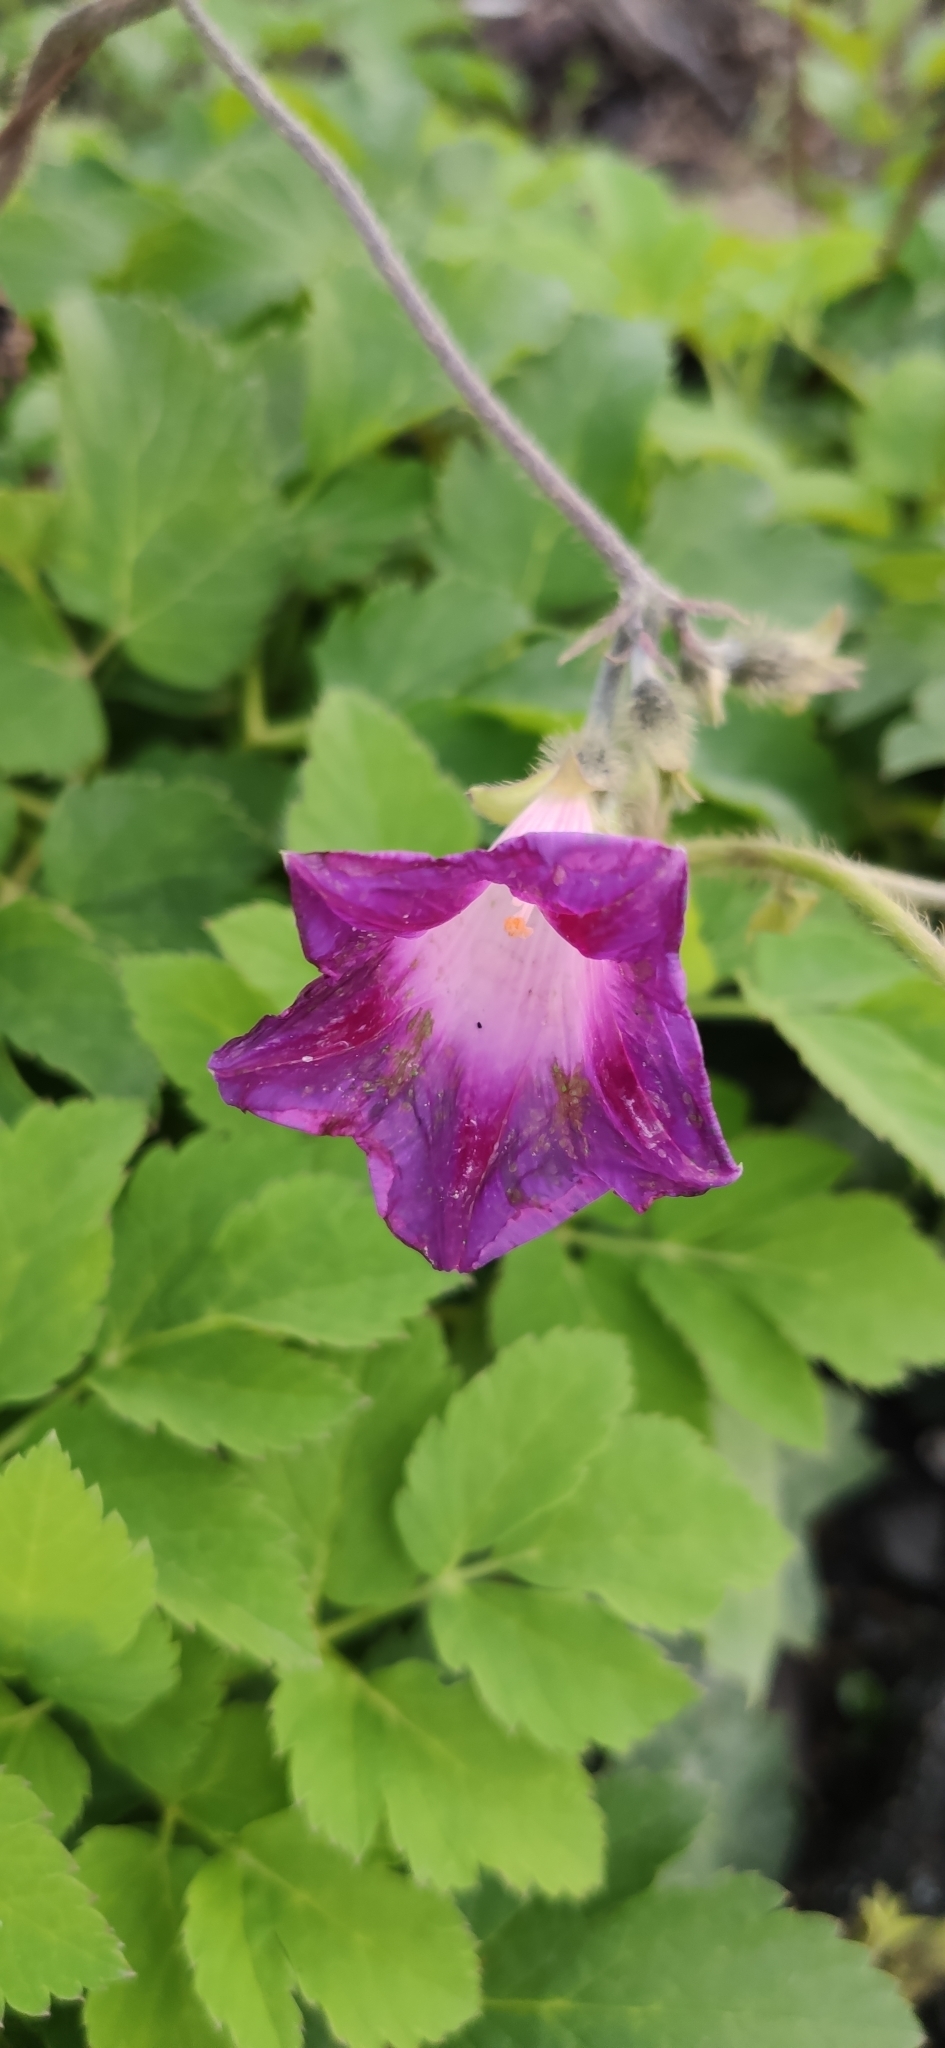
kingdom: Plantae
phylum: Tracheophyta
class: Magnoliopsida
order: Solanales
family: Convolvulaceae
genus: Ipomoea
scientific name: Ipomoea purpurea
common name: Common morning-glory
